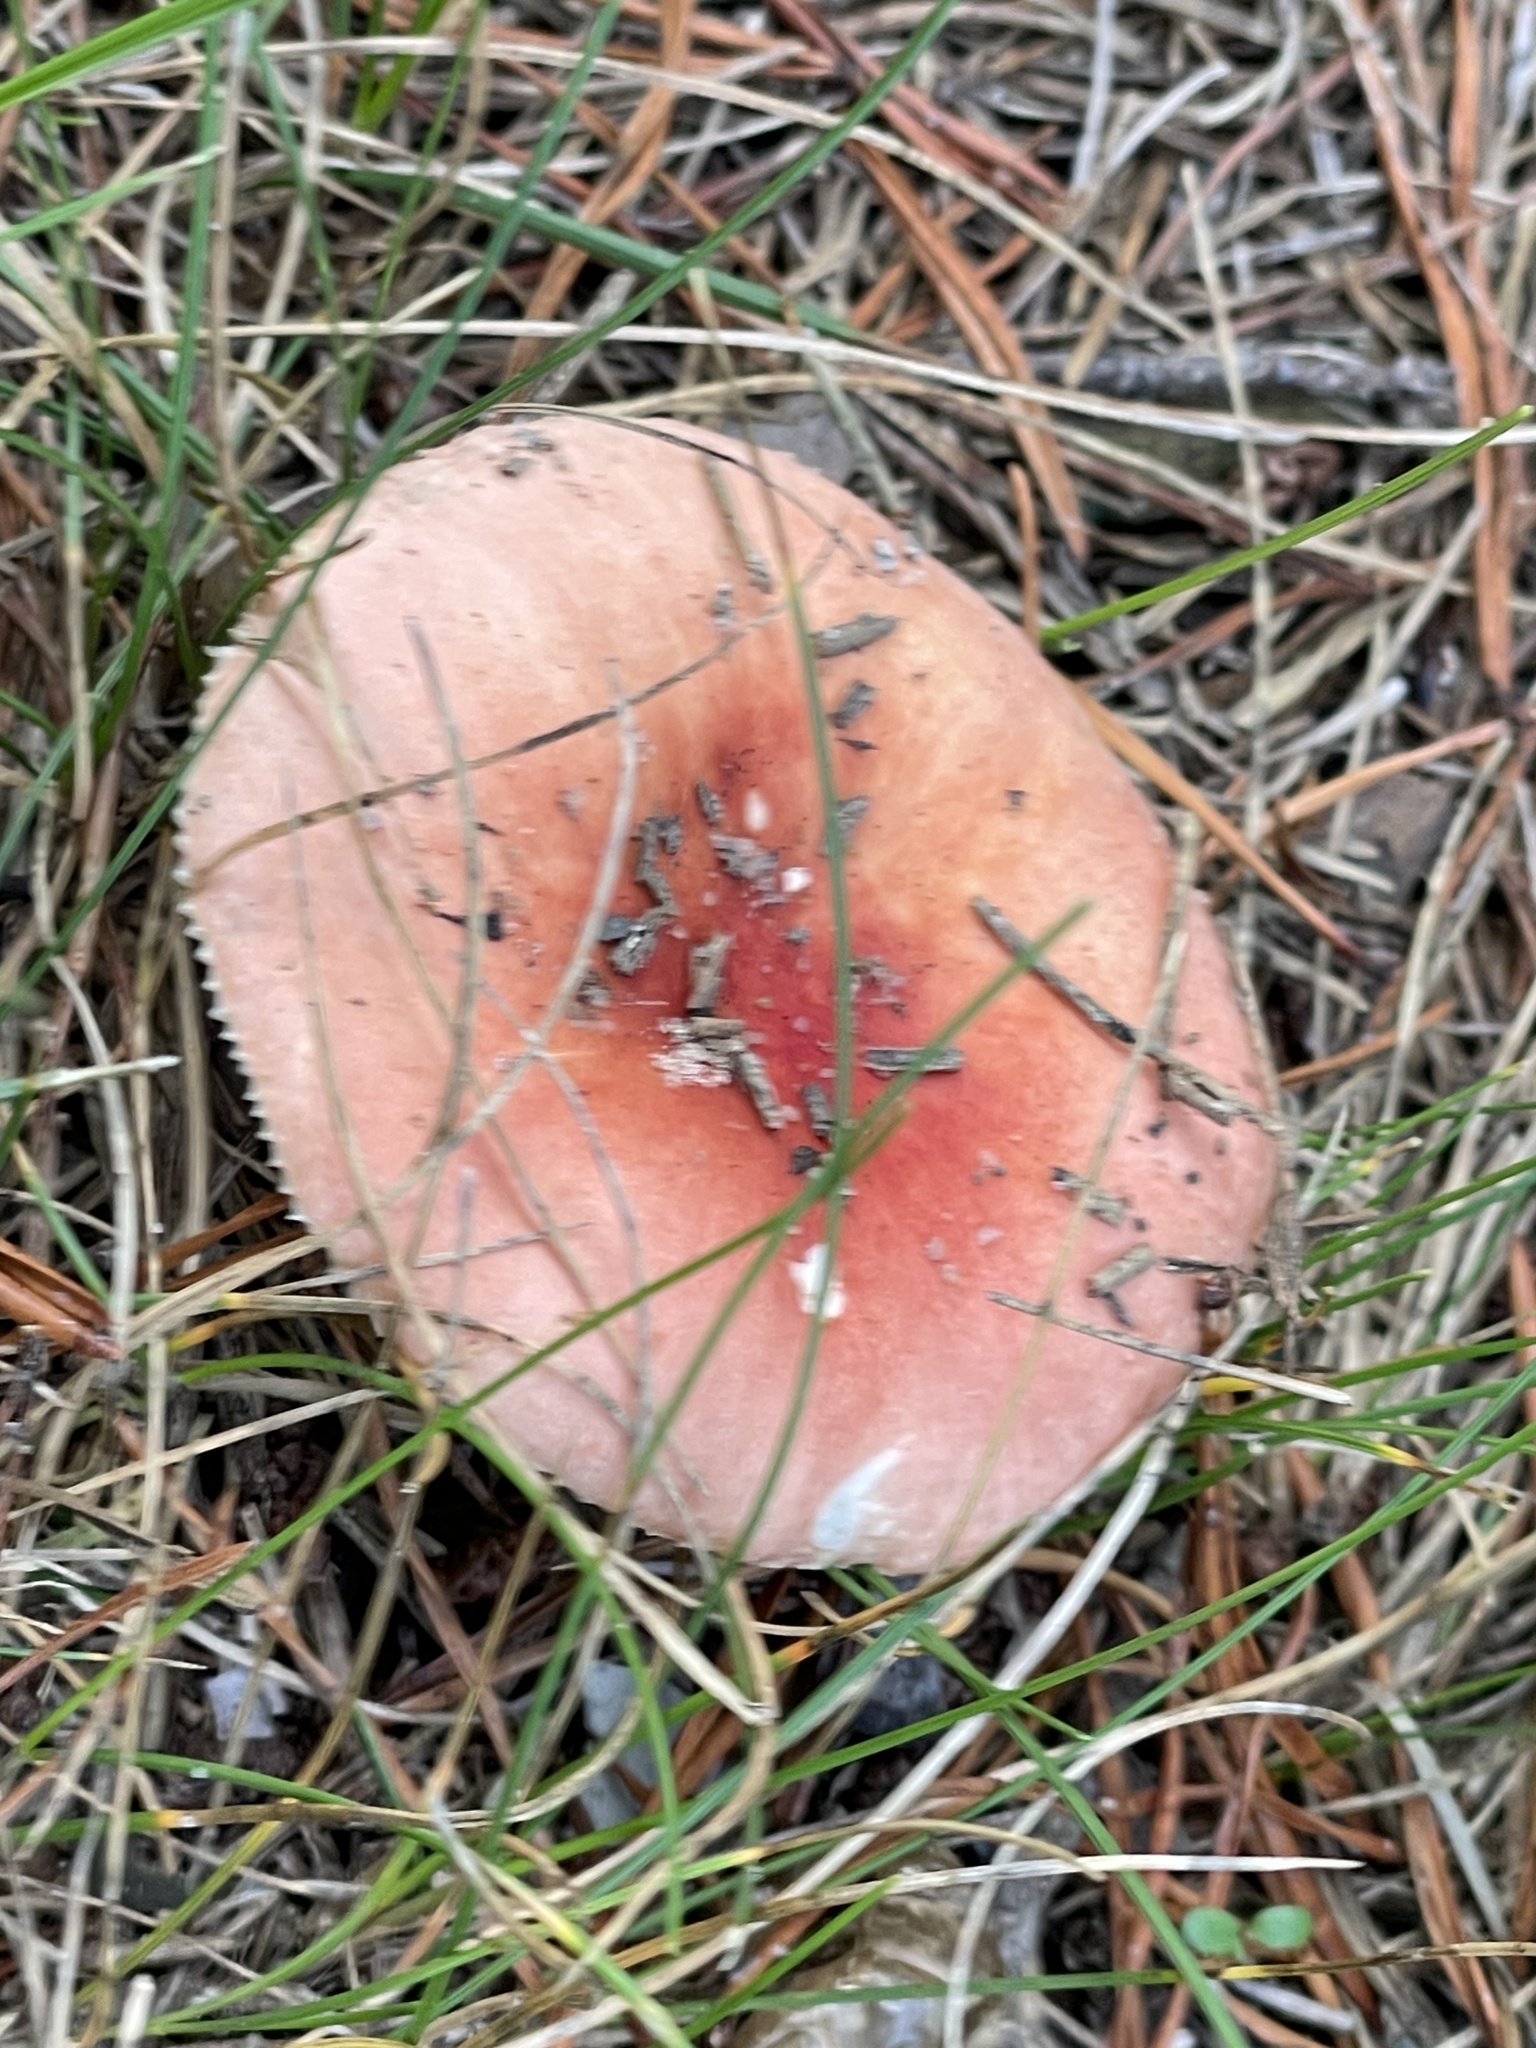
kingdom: Fungi
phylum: Basidiomycota
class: Agaricomycetes
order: Russulales
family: Russulaceae
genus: Russula
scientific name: Russula
